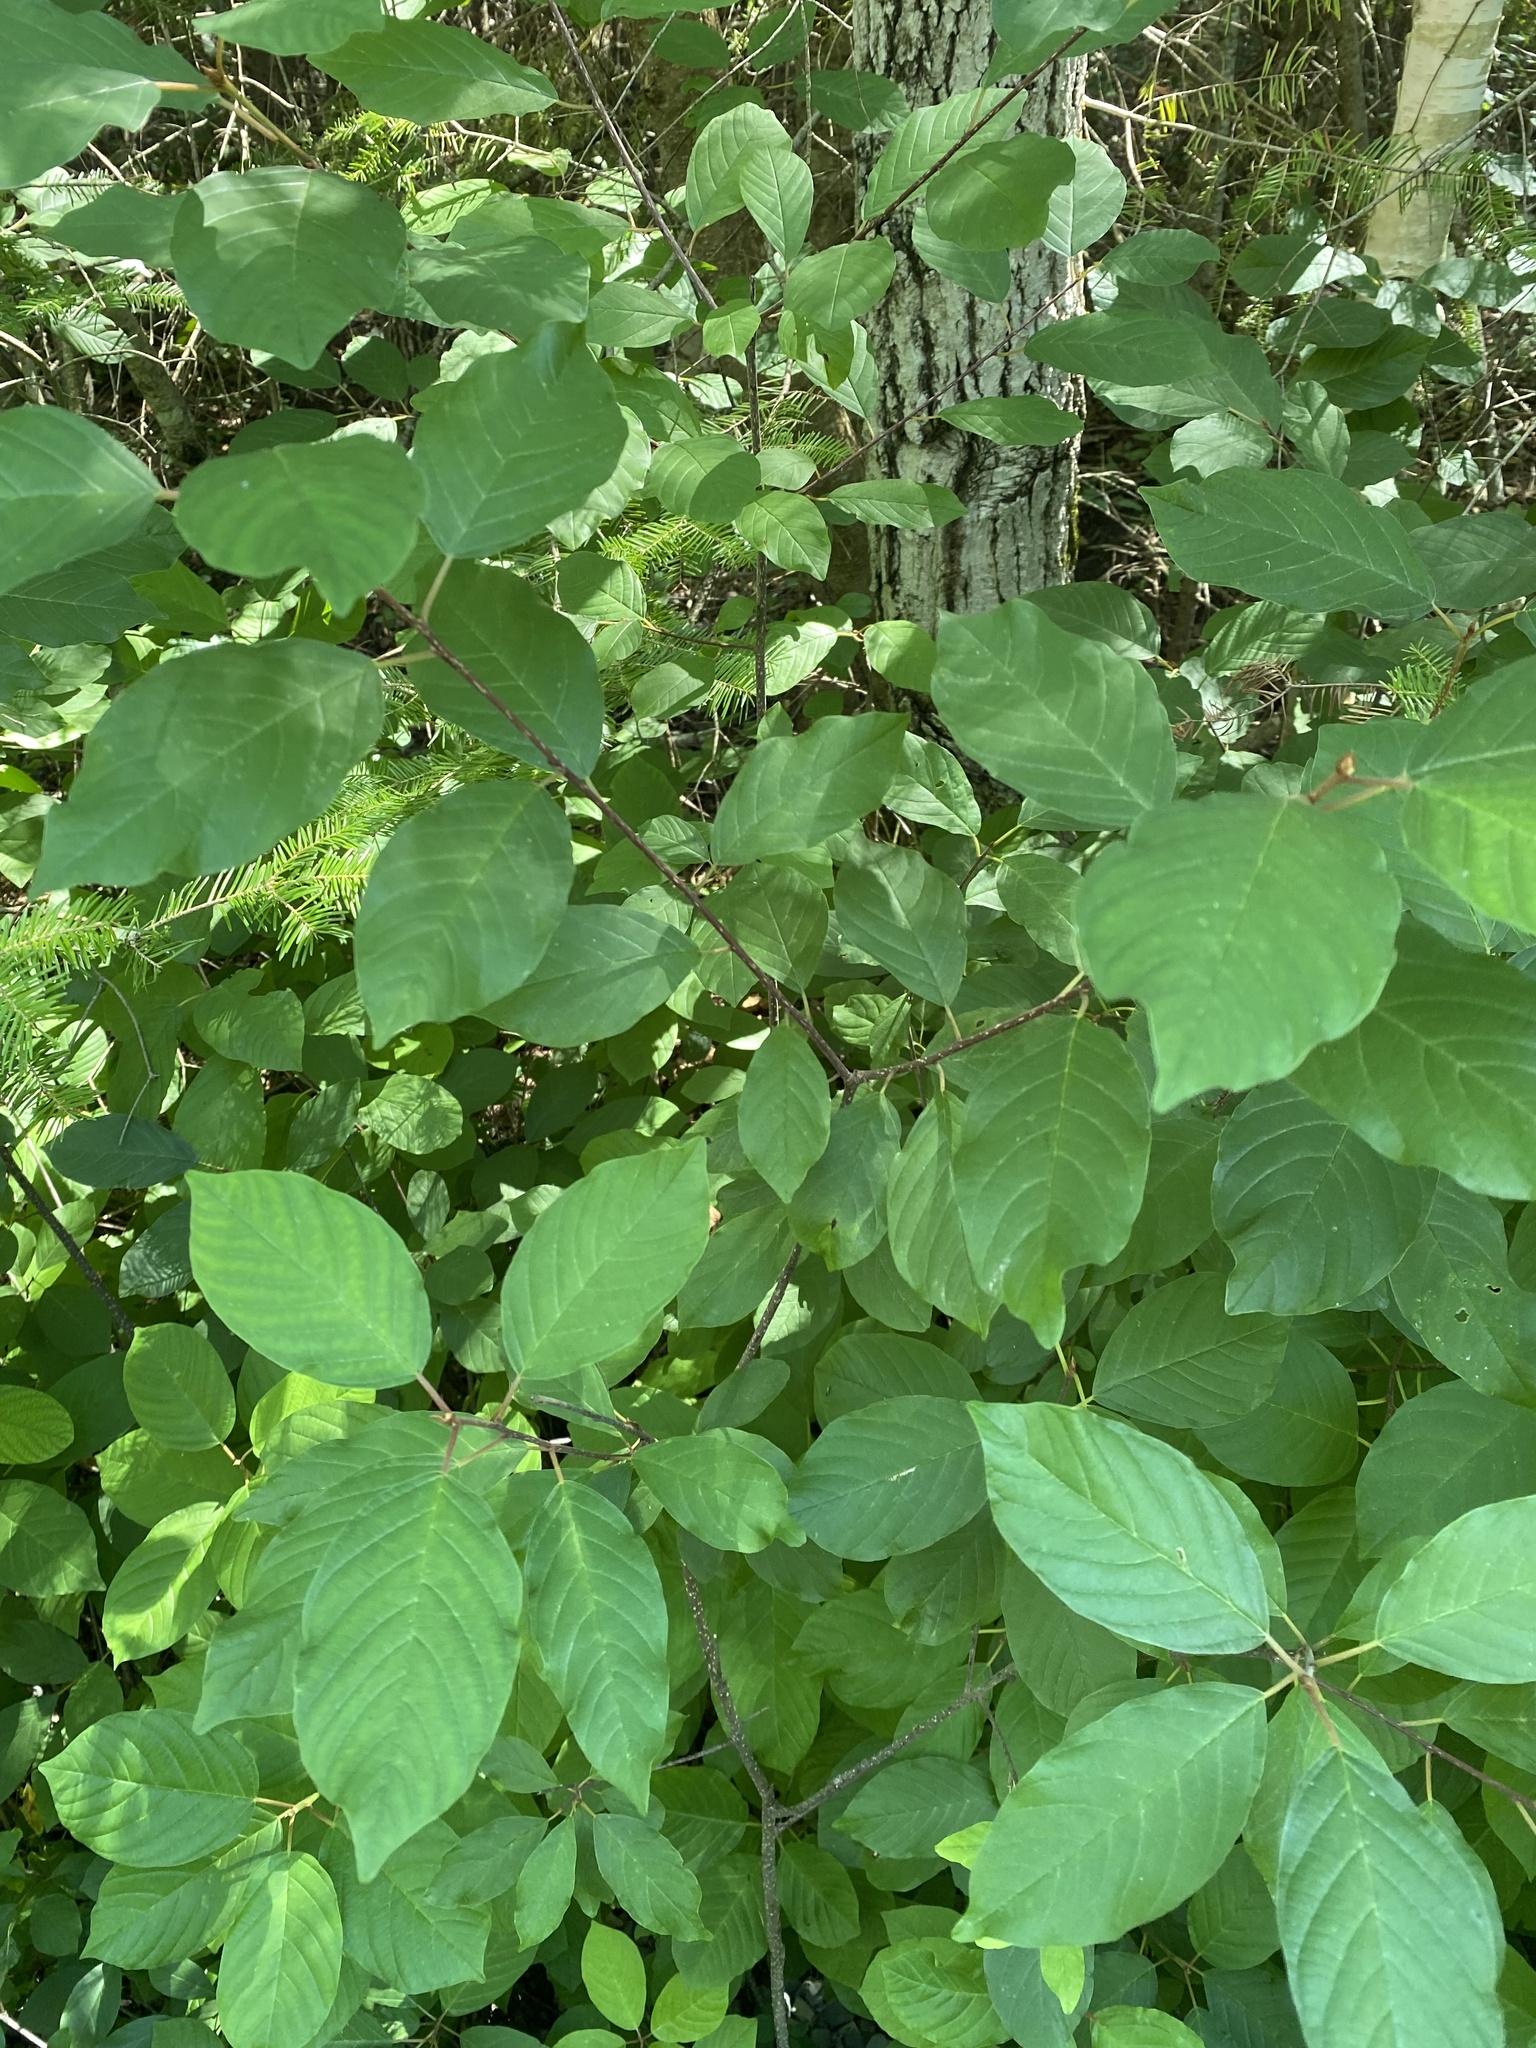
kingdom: Plantae
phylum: Tracheophyta
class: Magnoliopsida
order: Rosales
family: Rhamnaceae
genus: Frangula
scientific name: Frangula alnus
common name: Alder buckthorn
